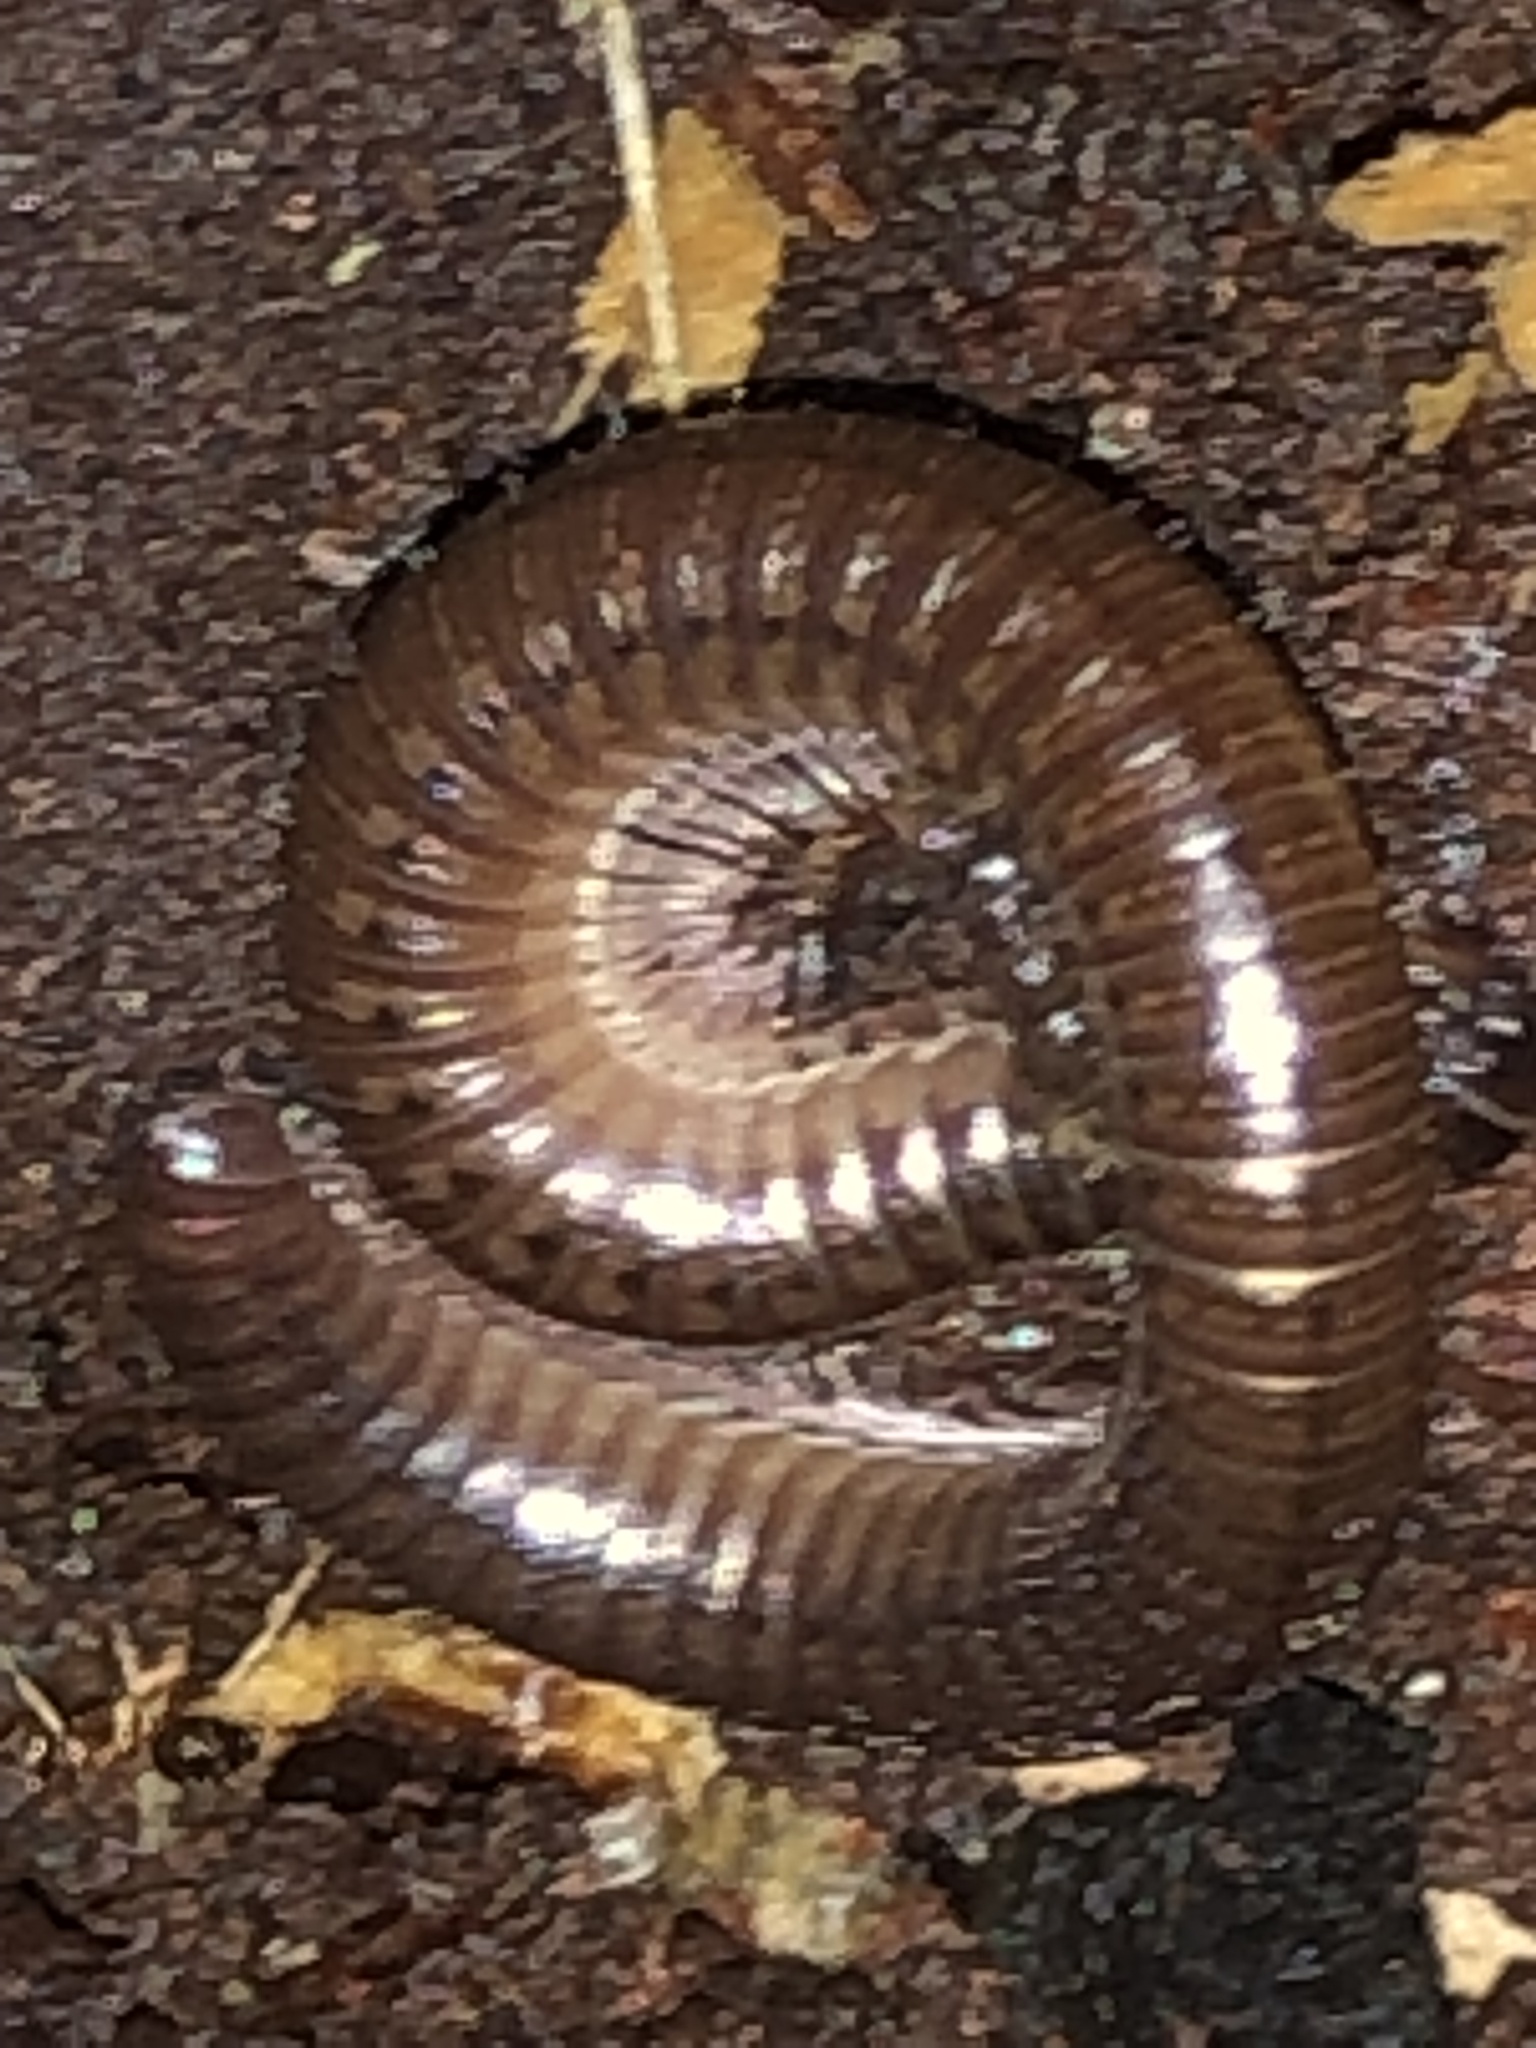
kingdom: Animalia
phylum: Arthropoda
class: Diplopoda
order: Julida
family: Parajulidae
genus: Ptyoiulus
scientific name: Ptyoiulus impressus
